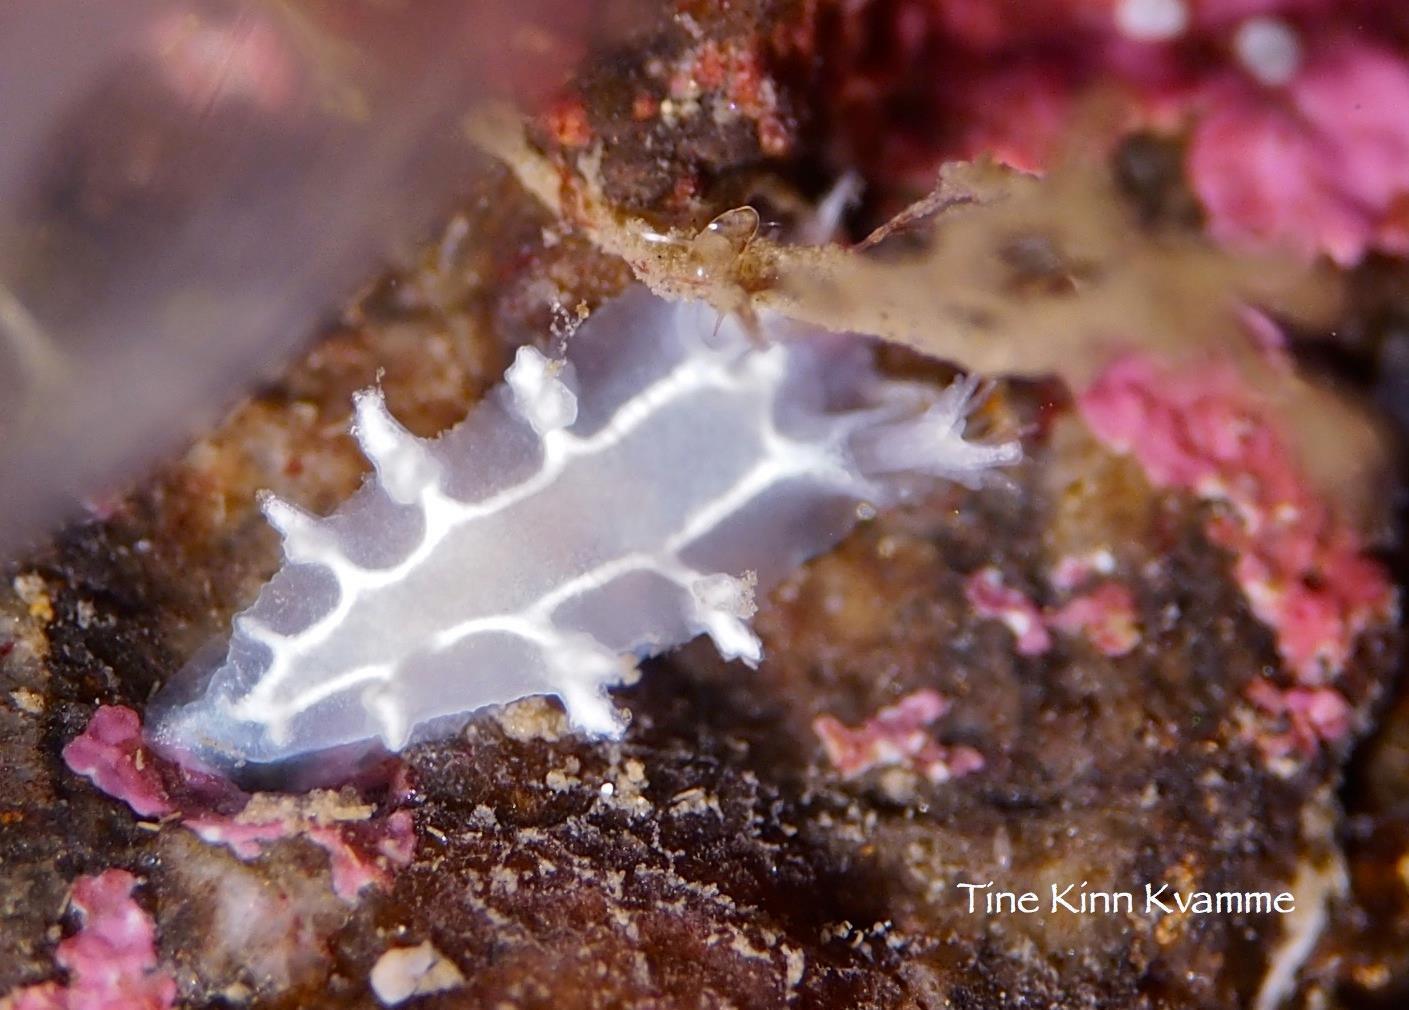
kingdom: Animalia
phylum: Mollusca
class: Gastropoda
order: Nudibranchia
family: Tritoniidae
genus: Duvaucelia
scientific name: Duvaucelia lineata
